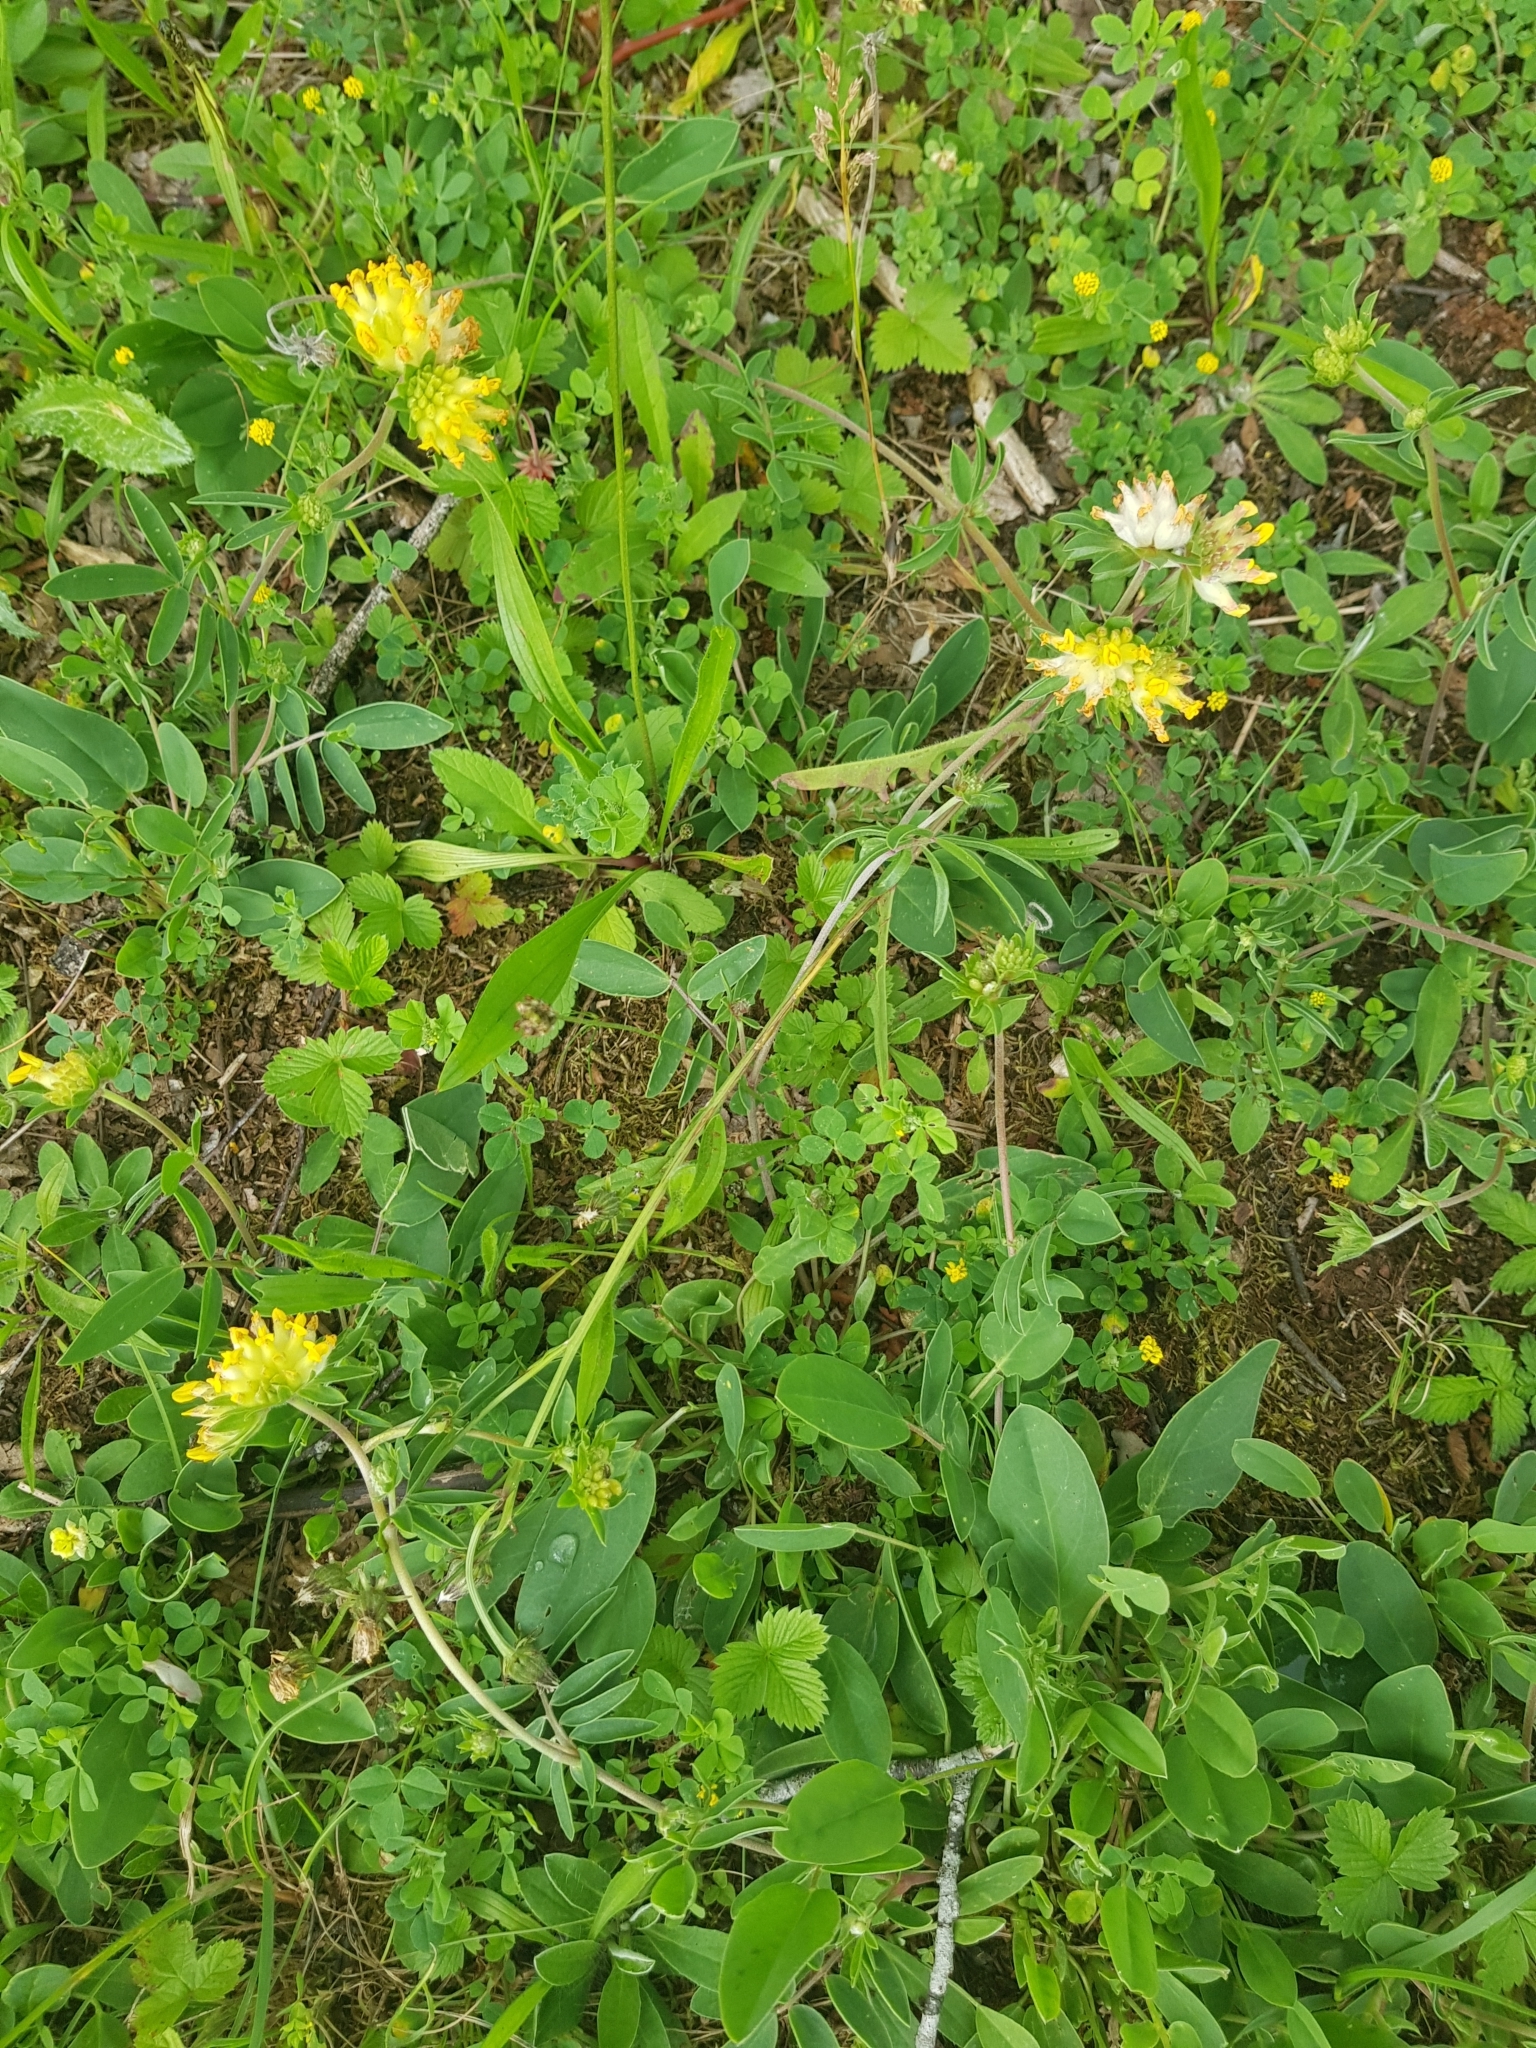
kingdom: Plantae
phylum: Tracheophyta
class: Magnoliopsida
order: Fabales
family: Fabaceae
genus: Anthyllis
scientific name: Anthyllis vulneraria
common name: Kidney vetch
